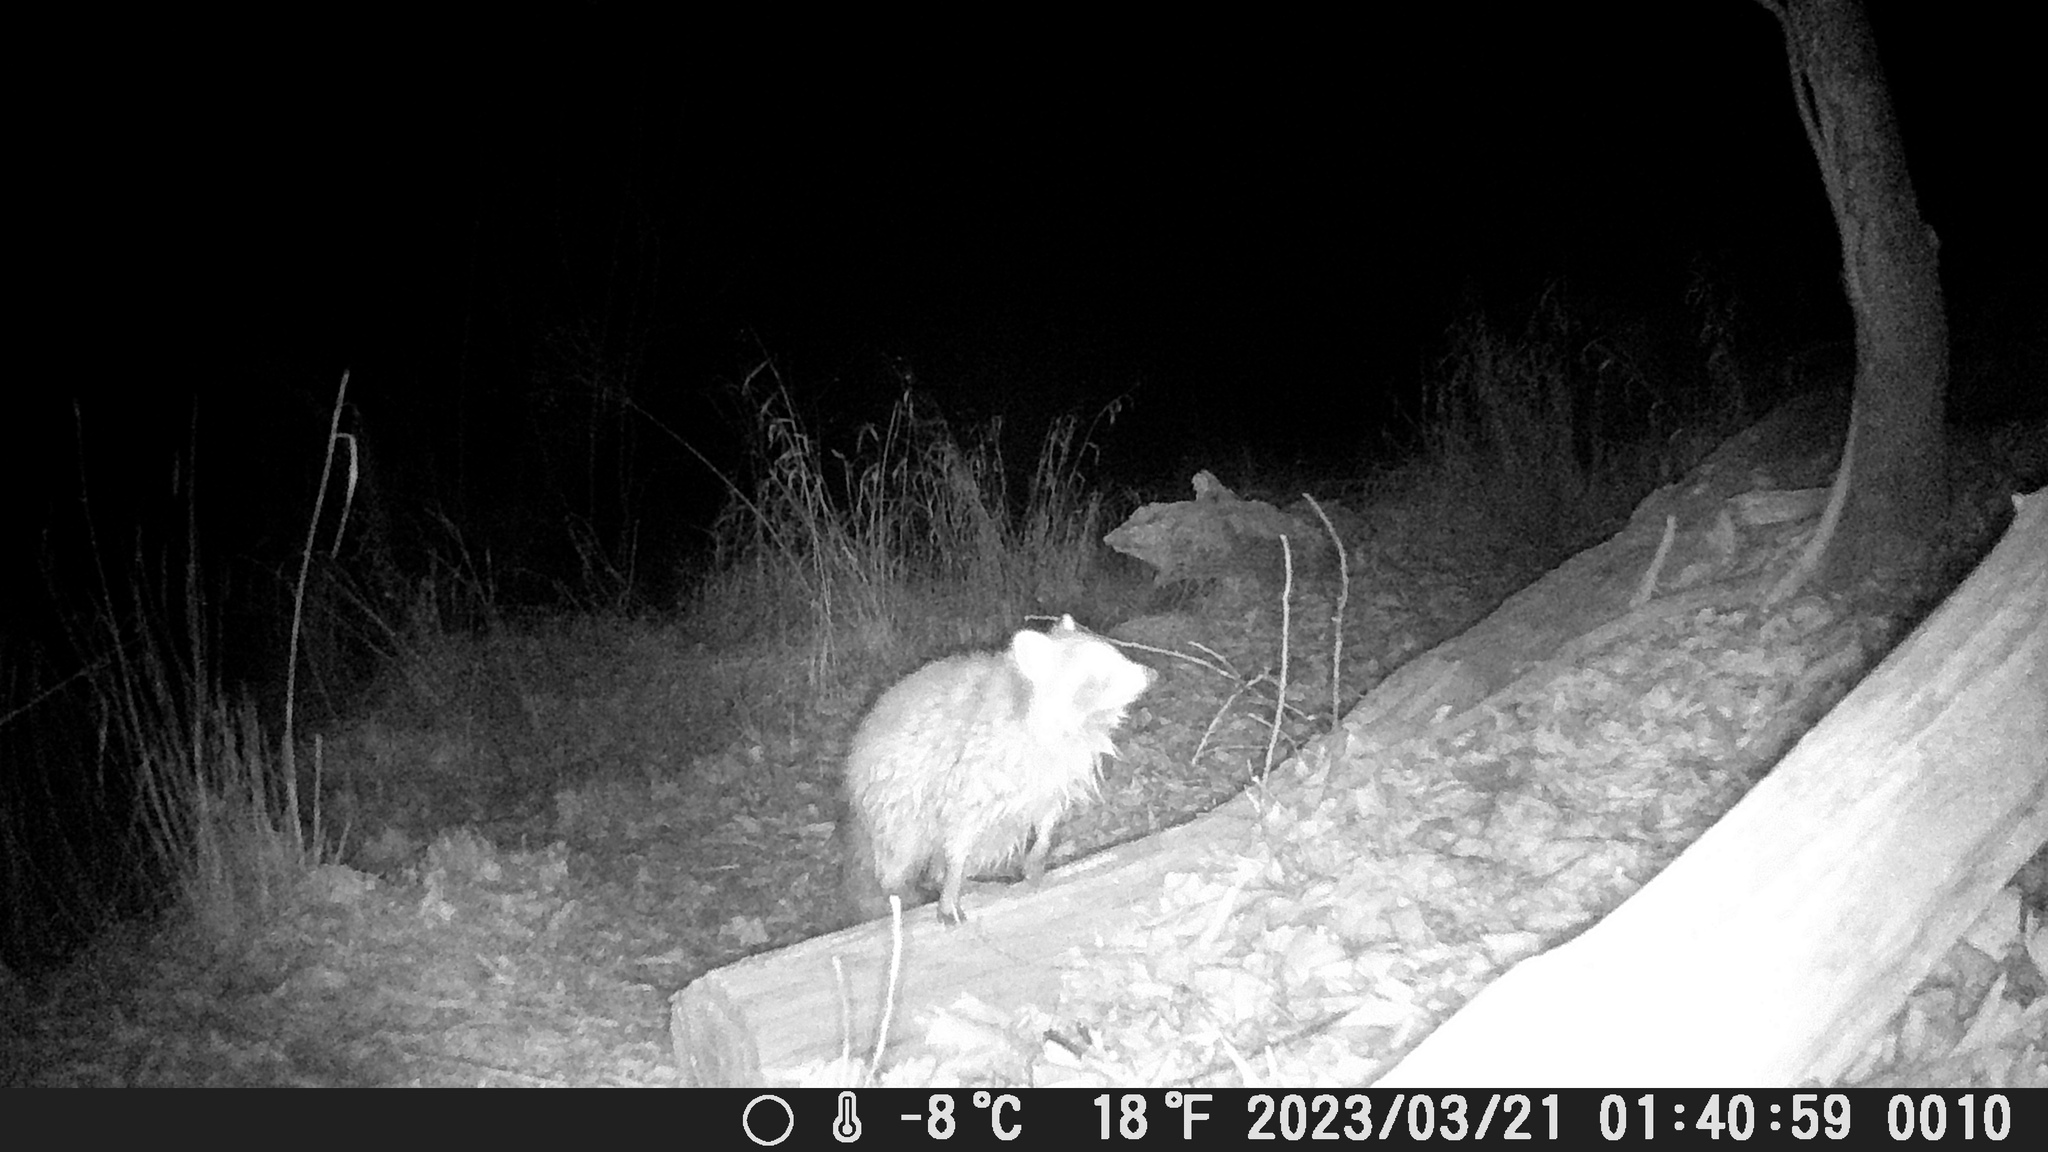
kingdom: Animalia
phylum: Chordata
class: Mammalia
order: Carnivora
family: Procyonidae
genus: Procyon
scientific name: Procyon lotor
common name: Raccoon
